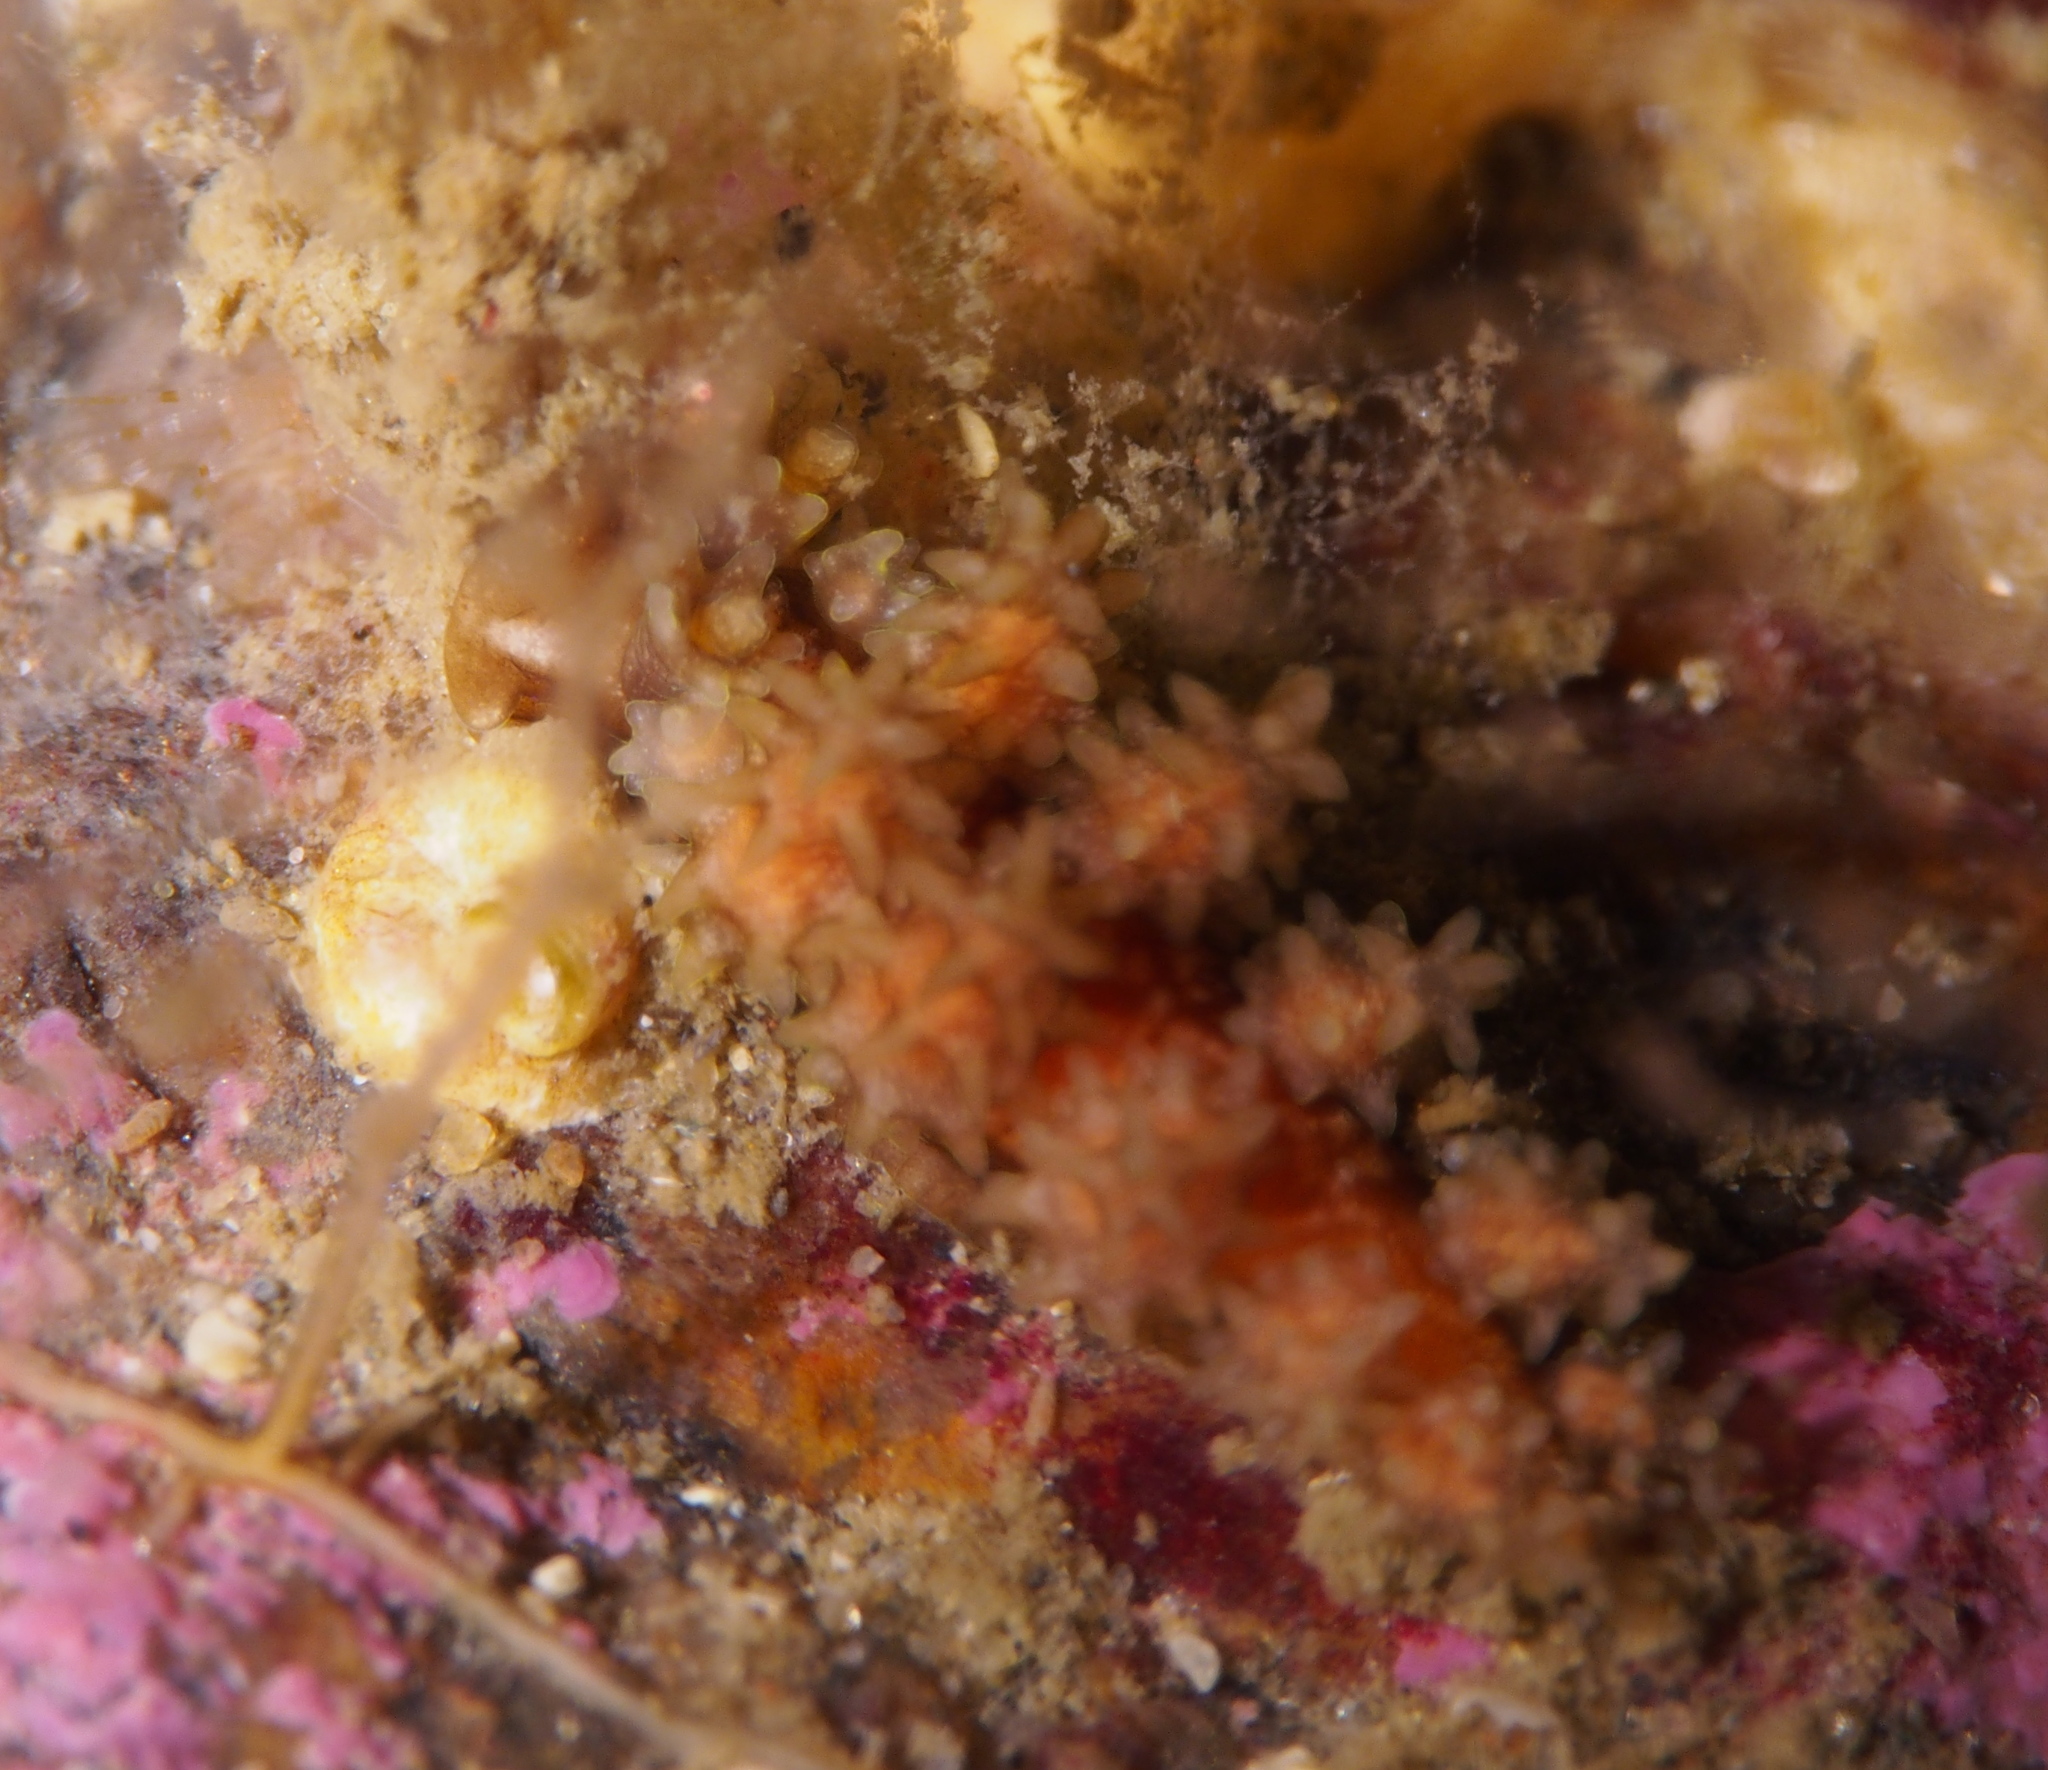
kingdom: Animalia
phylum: Mollusca
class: Gastropoda
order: Nudibranchia
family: Dotidae
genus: Doto
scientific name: Doto hystrix
